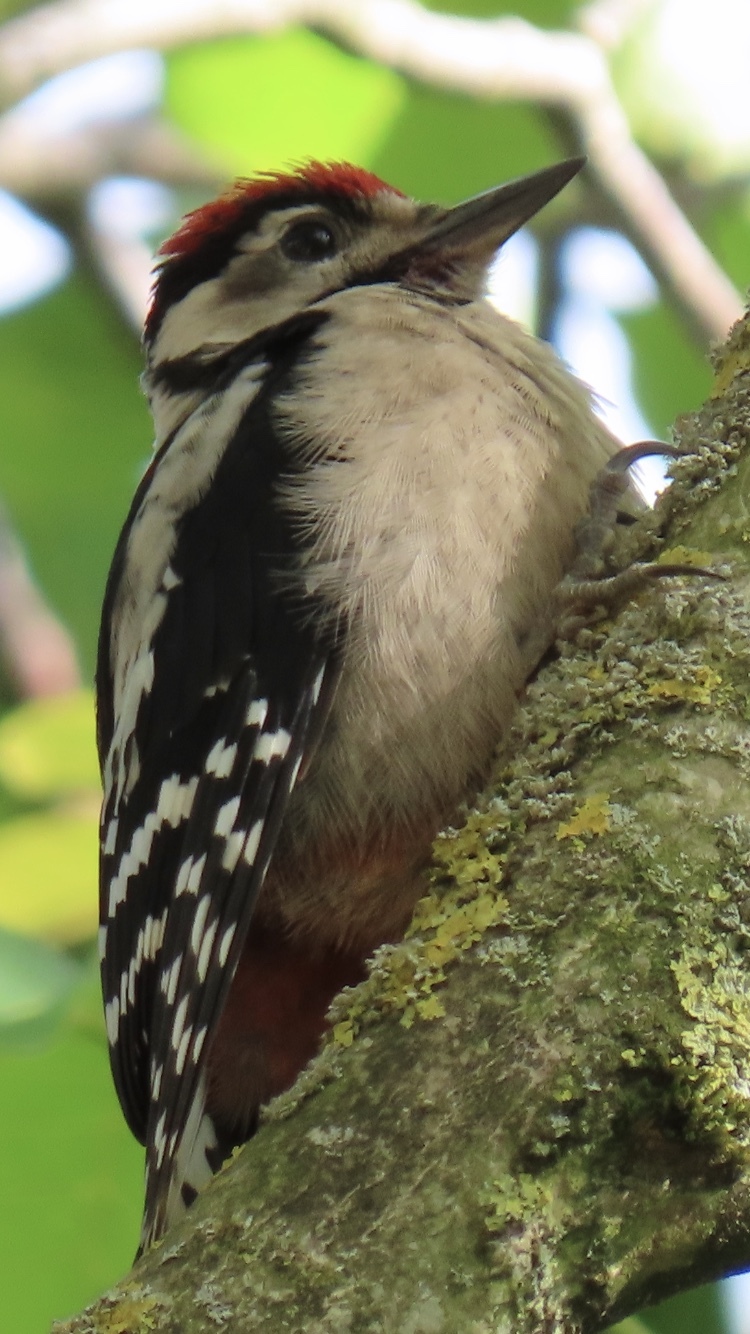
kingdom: Animalia
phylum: Chordata
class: Aves
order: Piciformes
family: Picidae
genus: Dendrocopos
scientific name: Dendrocopos major
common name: Great spotted woodpecker
